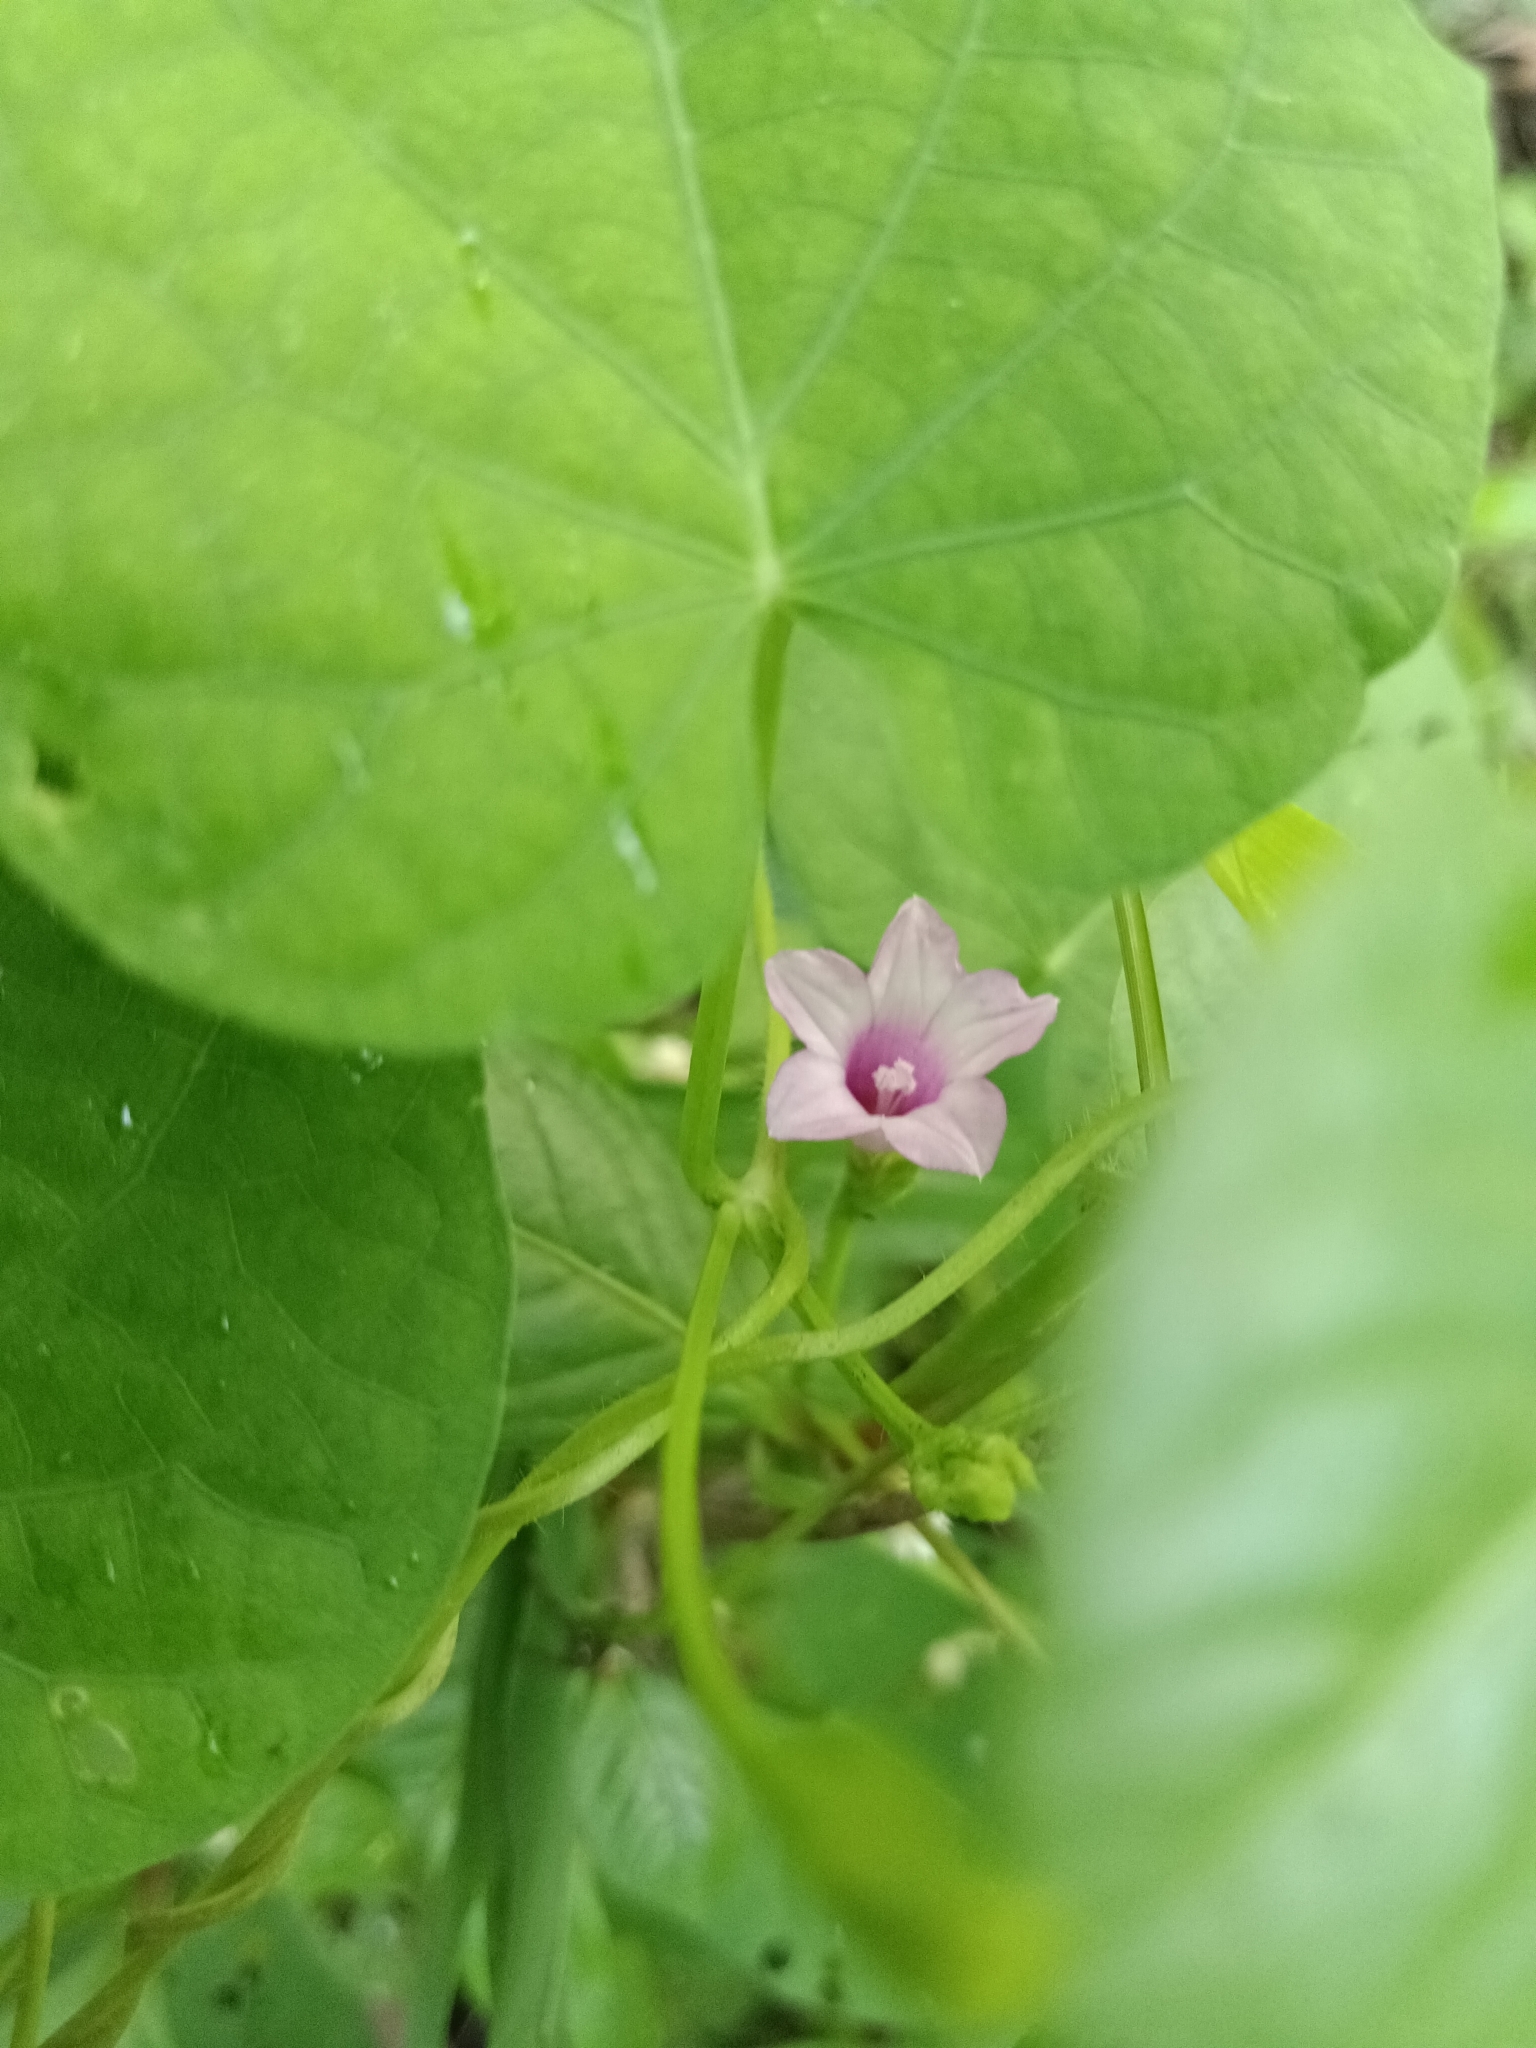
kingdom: Plantae
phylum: Tracheophyta
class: Magnoliopsida
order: Solanales
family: Convolvulaceae
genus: Ipomoea
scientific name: Ipomoea triloba
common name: Little-bell
